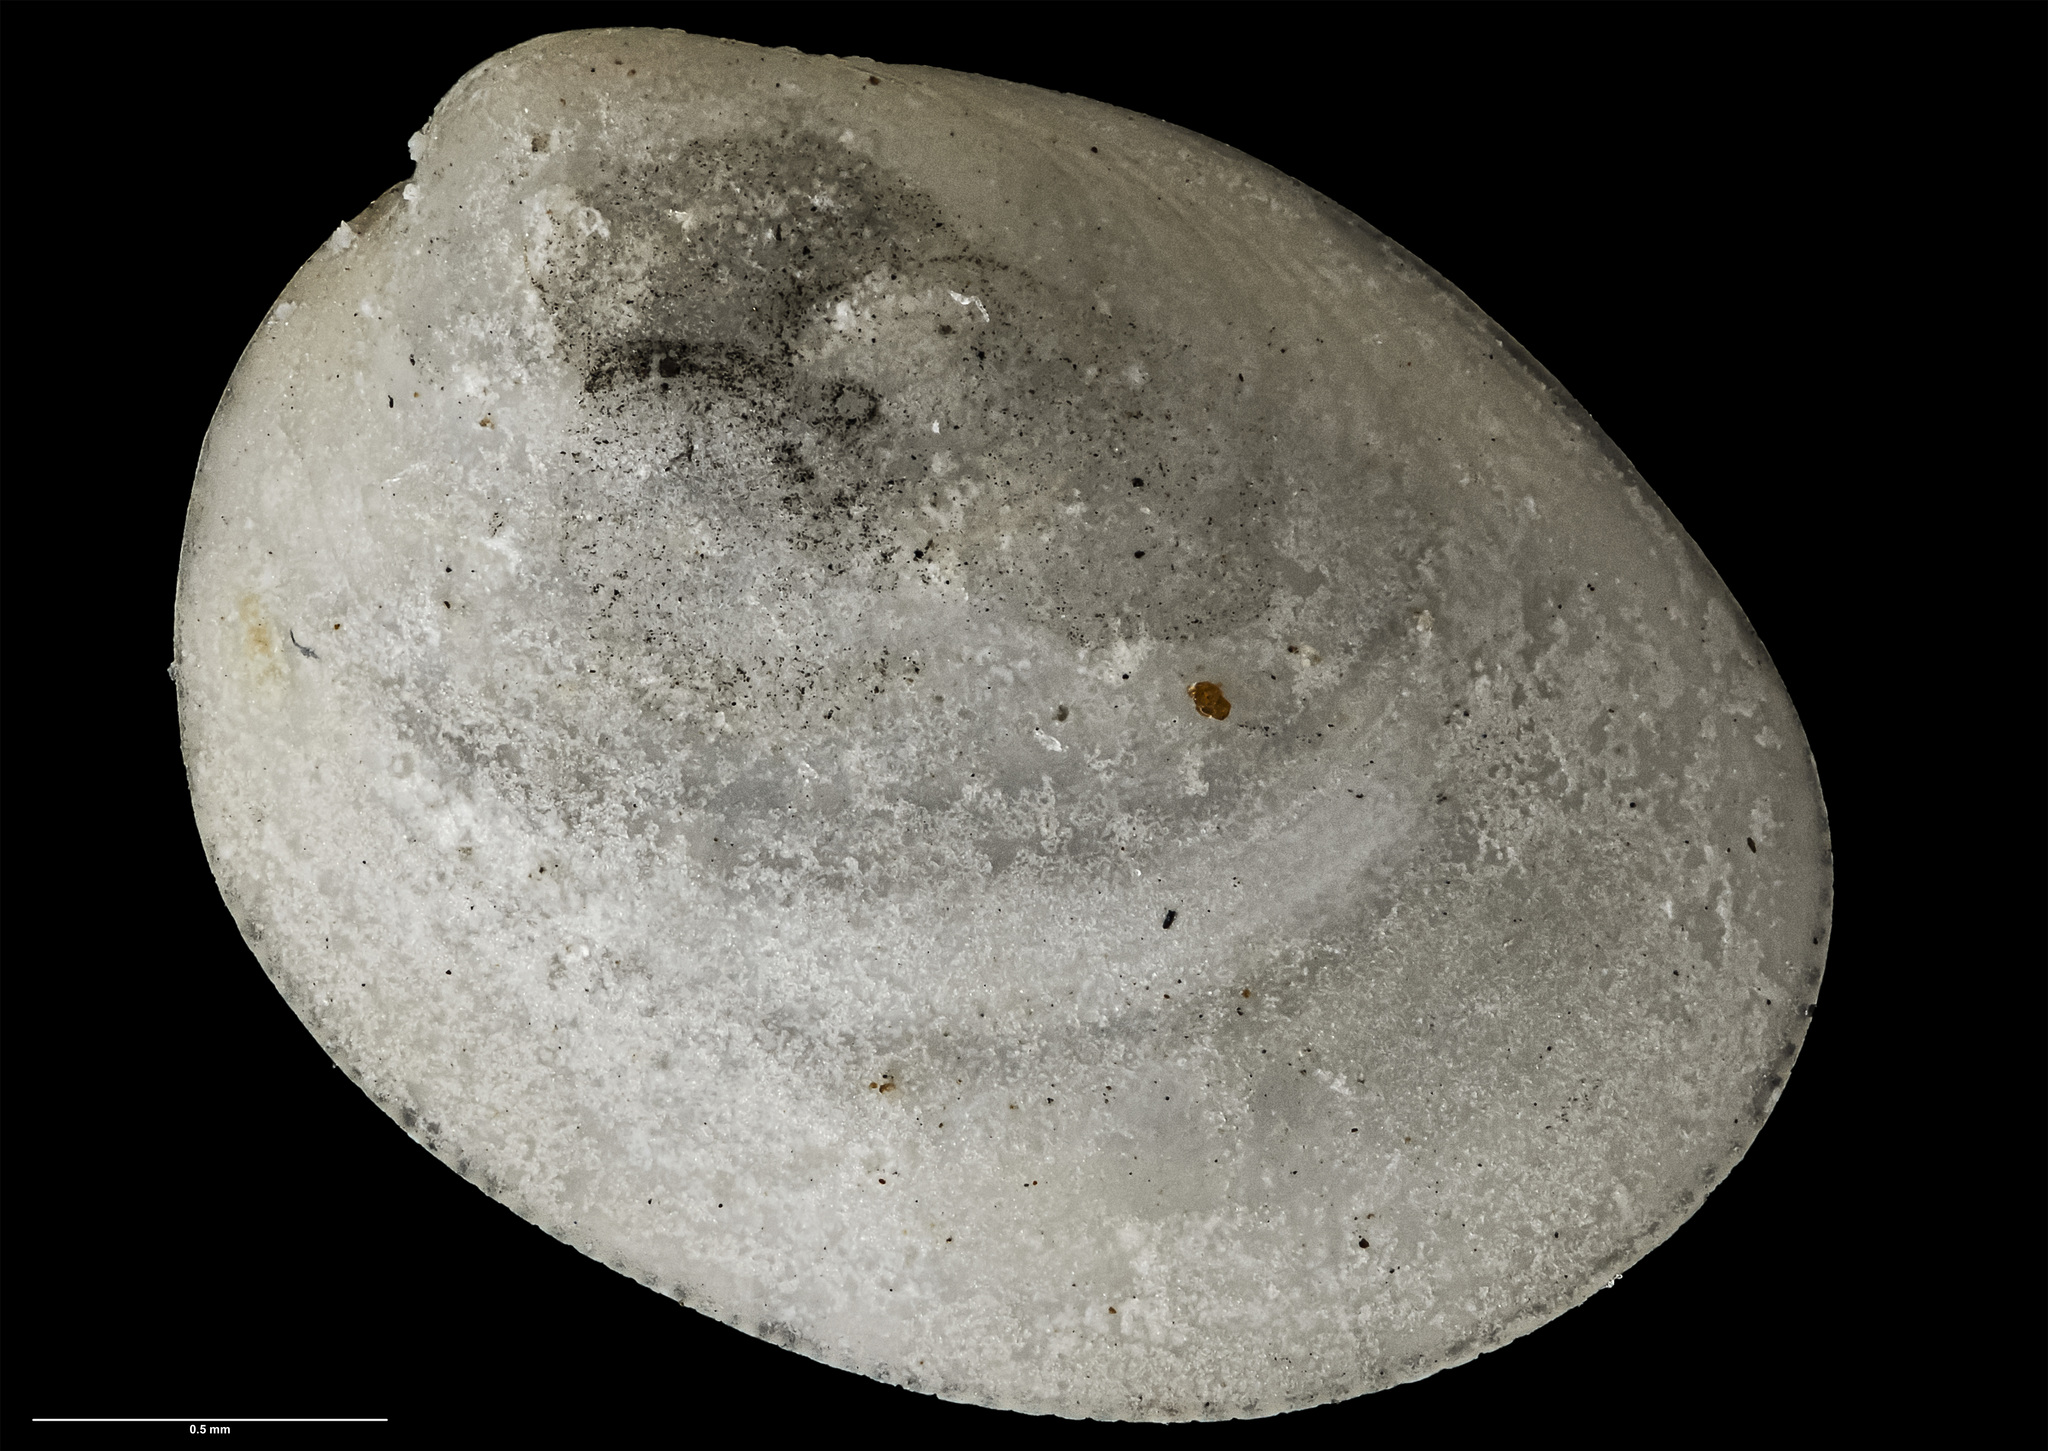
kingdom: Animalia
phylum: Mollusca
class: Bivalvia
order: Nuculida
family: Nuculidae
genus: Pronucula
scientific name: Pronucula bollonsi
